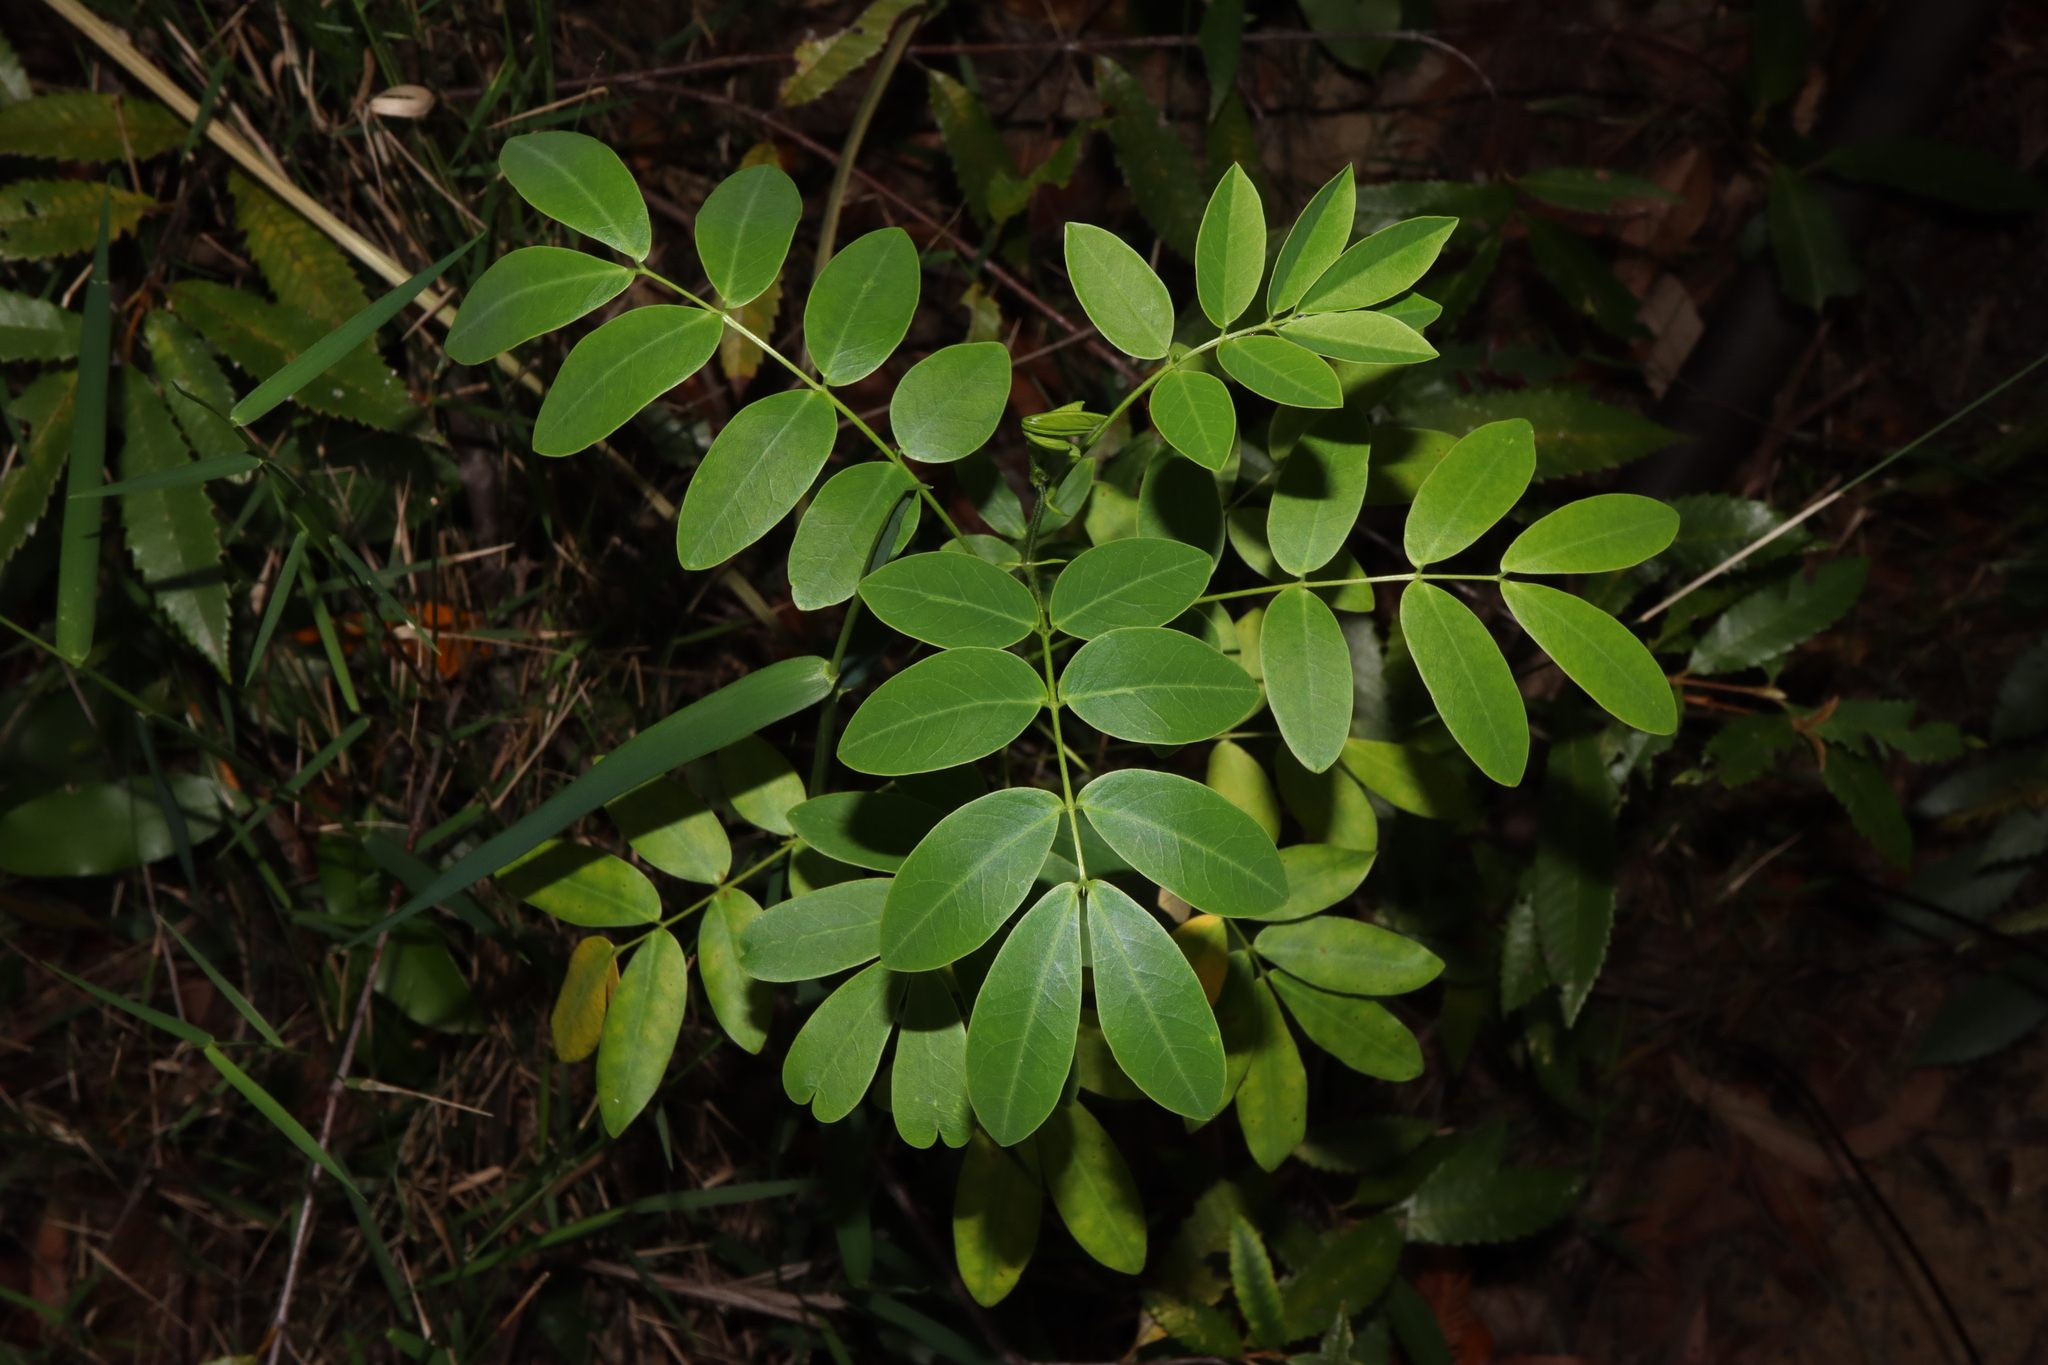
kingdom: Plantae
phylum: Tracheophyta
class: Magnoliopsida
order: Fabales
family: Fabaceae
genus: Senna
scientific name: Senna pendula
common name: Easter cassia
